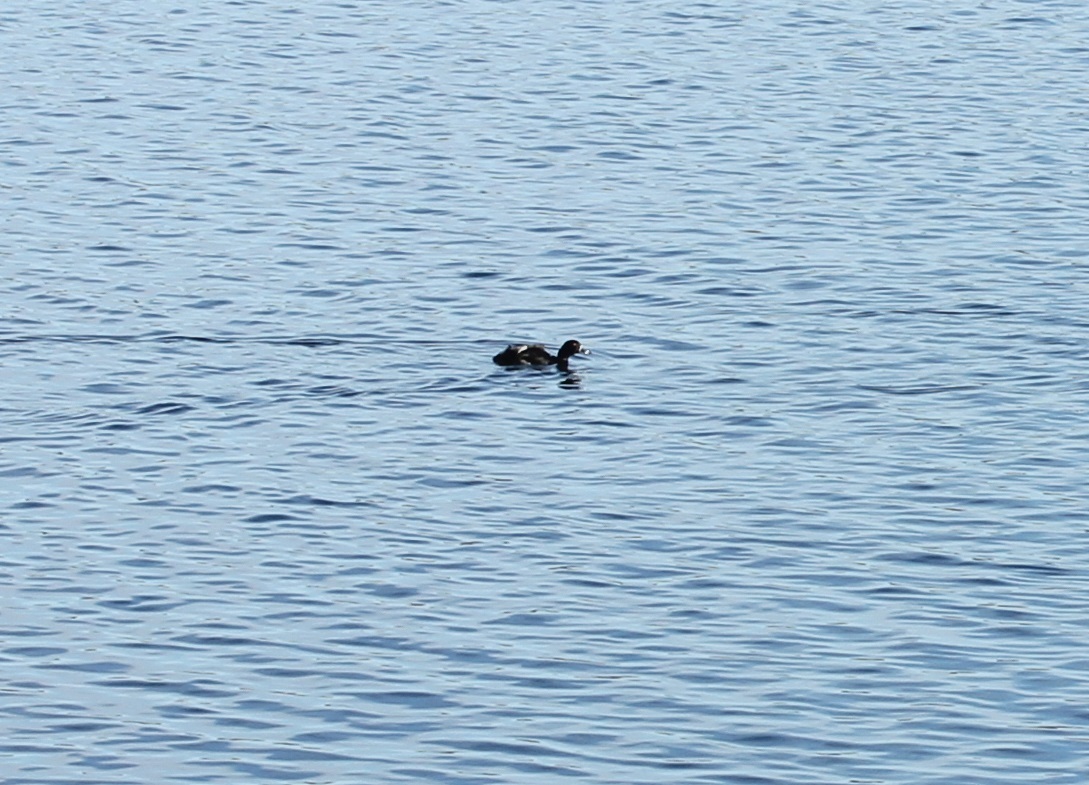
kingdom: Animalia
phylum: Chordata
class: Aves
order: Anseriformes
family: Anatidae
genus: Aythya
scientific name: Aythya collaris
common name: Ring-necked duck
